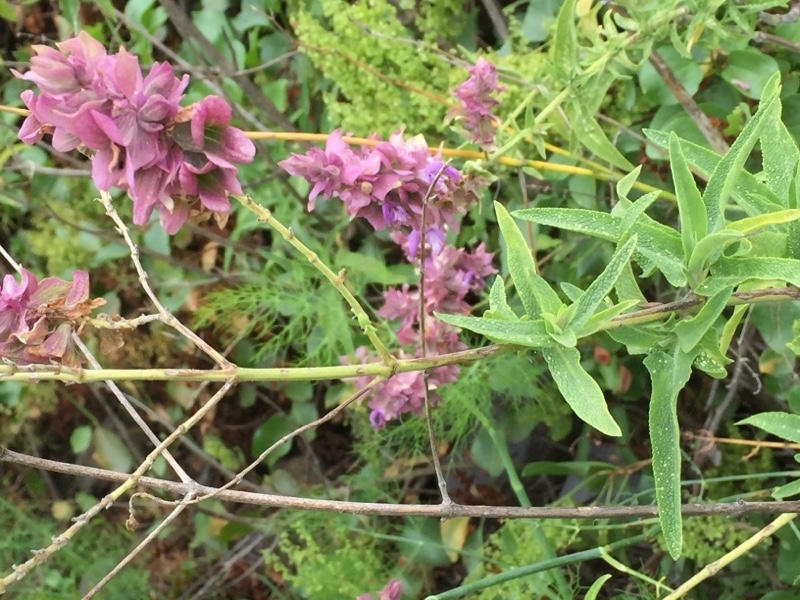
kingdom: Plantae
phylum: Tracheophyta
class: Magnoliopsida
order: Lamiales
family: Lamiaceae
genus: Salvia
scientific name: Salvia canariensis
